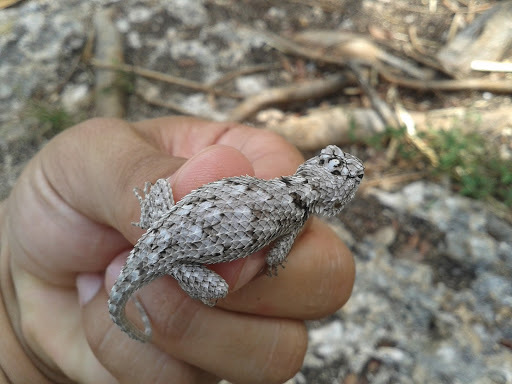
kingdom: Animalia
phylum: Chordata
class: Squamata
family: Phrynosomatidae
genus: Sceloporus
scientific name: Sceloporus lundelli
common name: Lundell's spiny lizard
